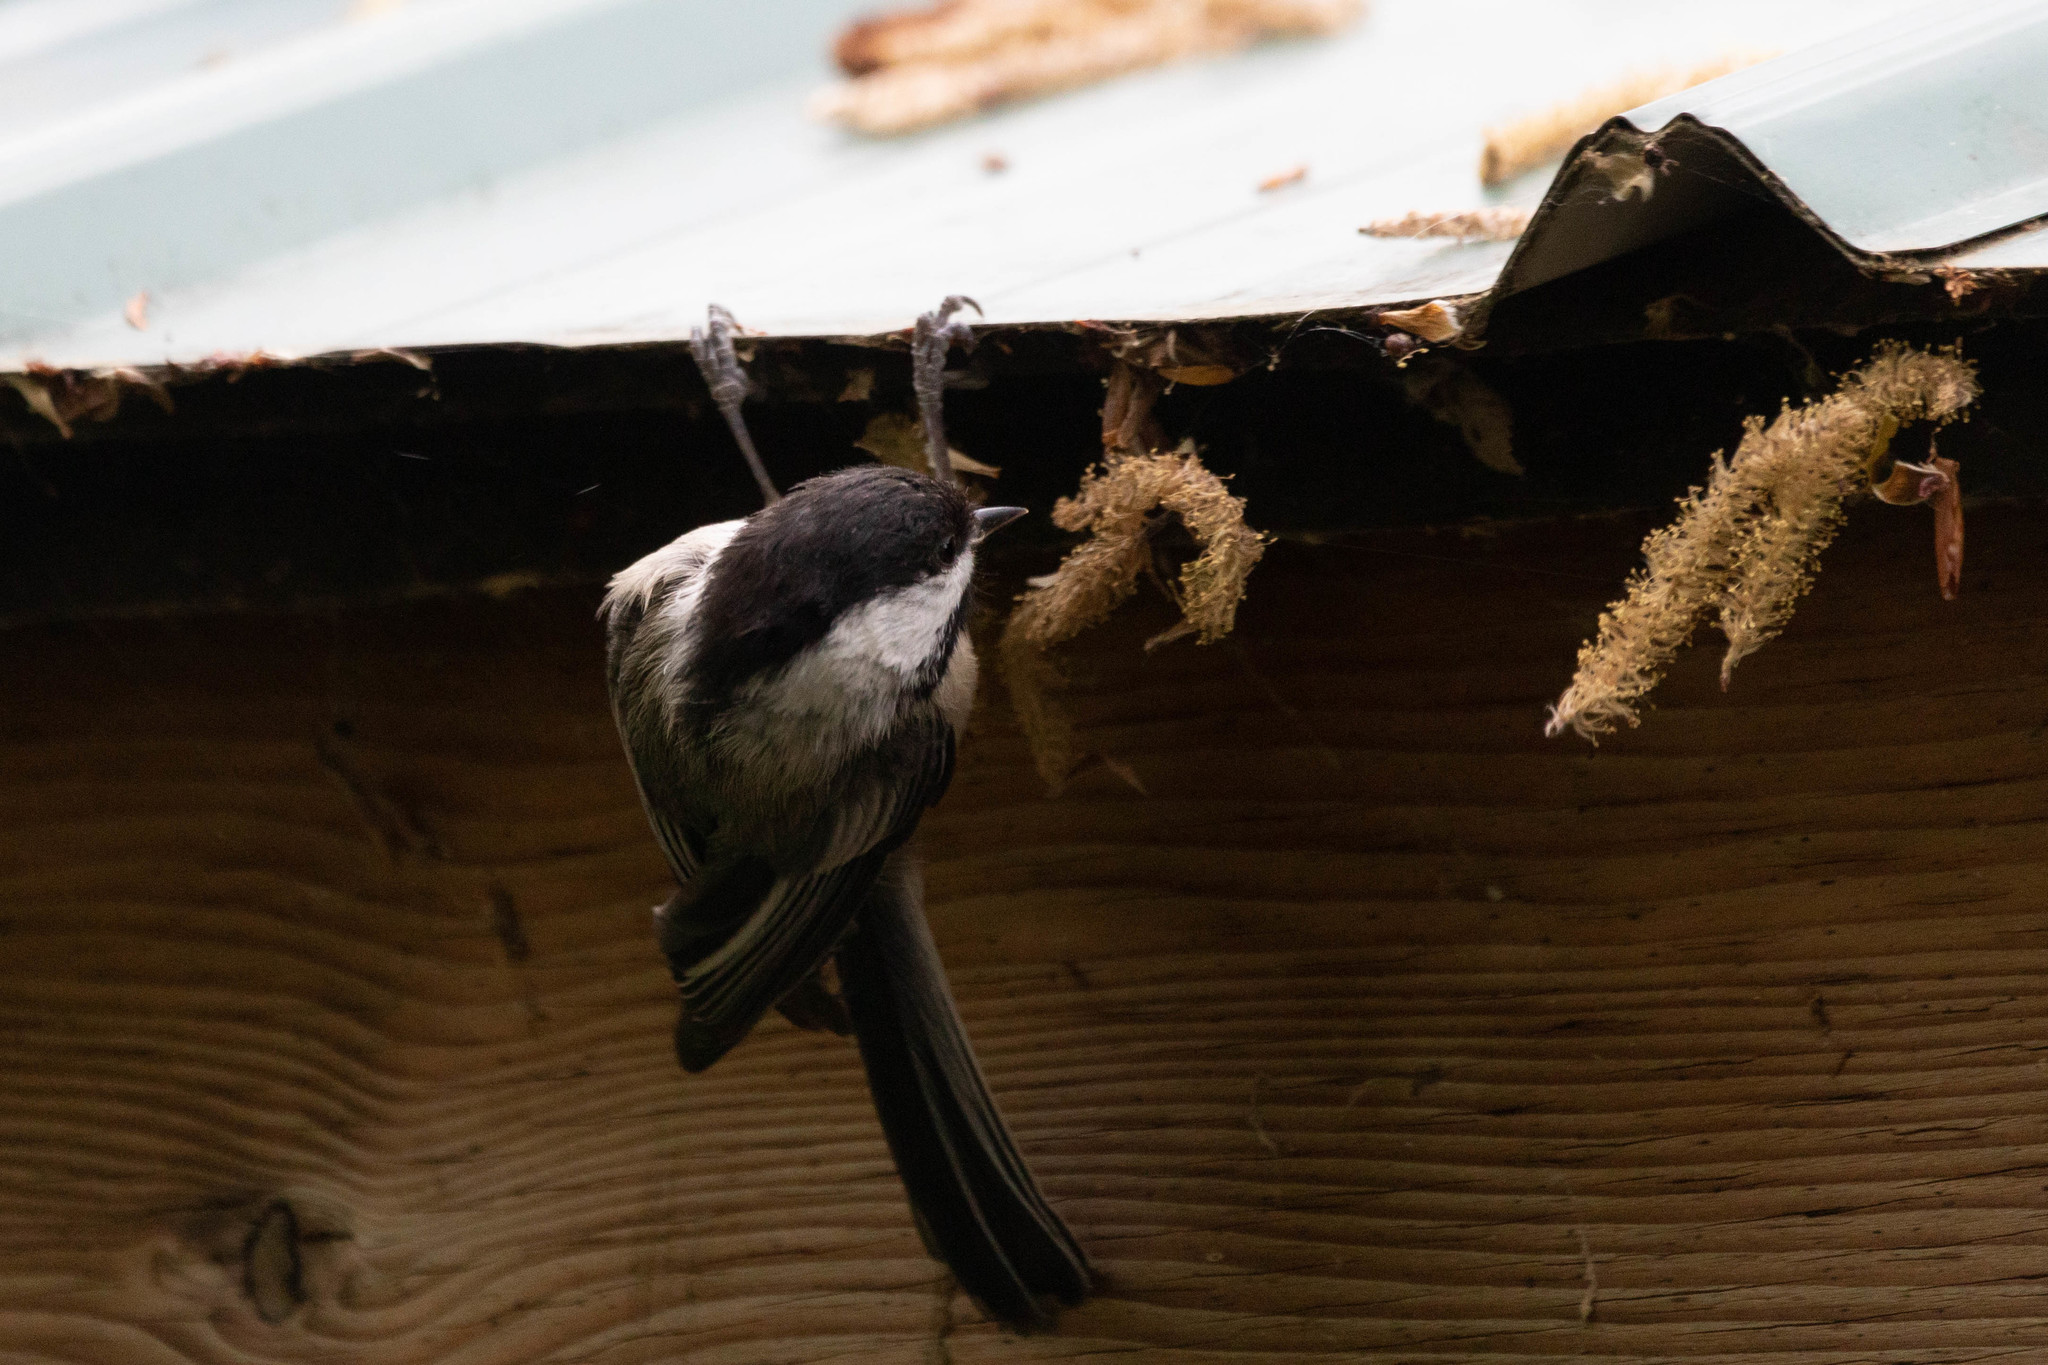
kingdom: Animalia
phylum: Chordata
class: Aves
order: Passeriformes
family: Paridae
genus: Poecile
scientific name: Poecile atricapillus
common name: Black-capped chickadee
